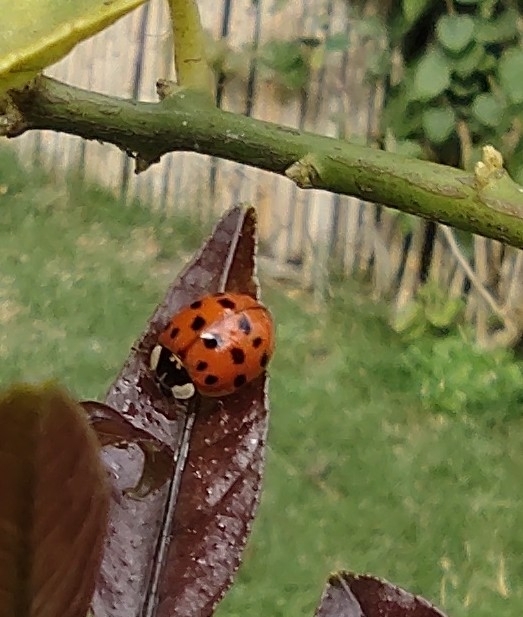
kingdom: Animalia
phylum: Arthropoda
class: Insecta
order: Coleoptera
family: Coccinellidae
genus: Harmonia
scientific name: Harmonia axyridis
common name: Harlequin ladybird
